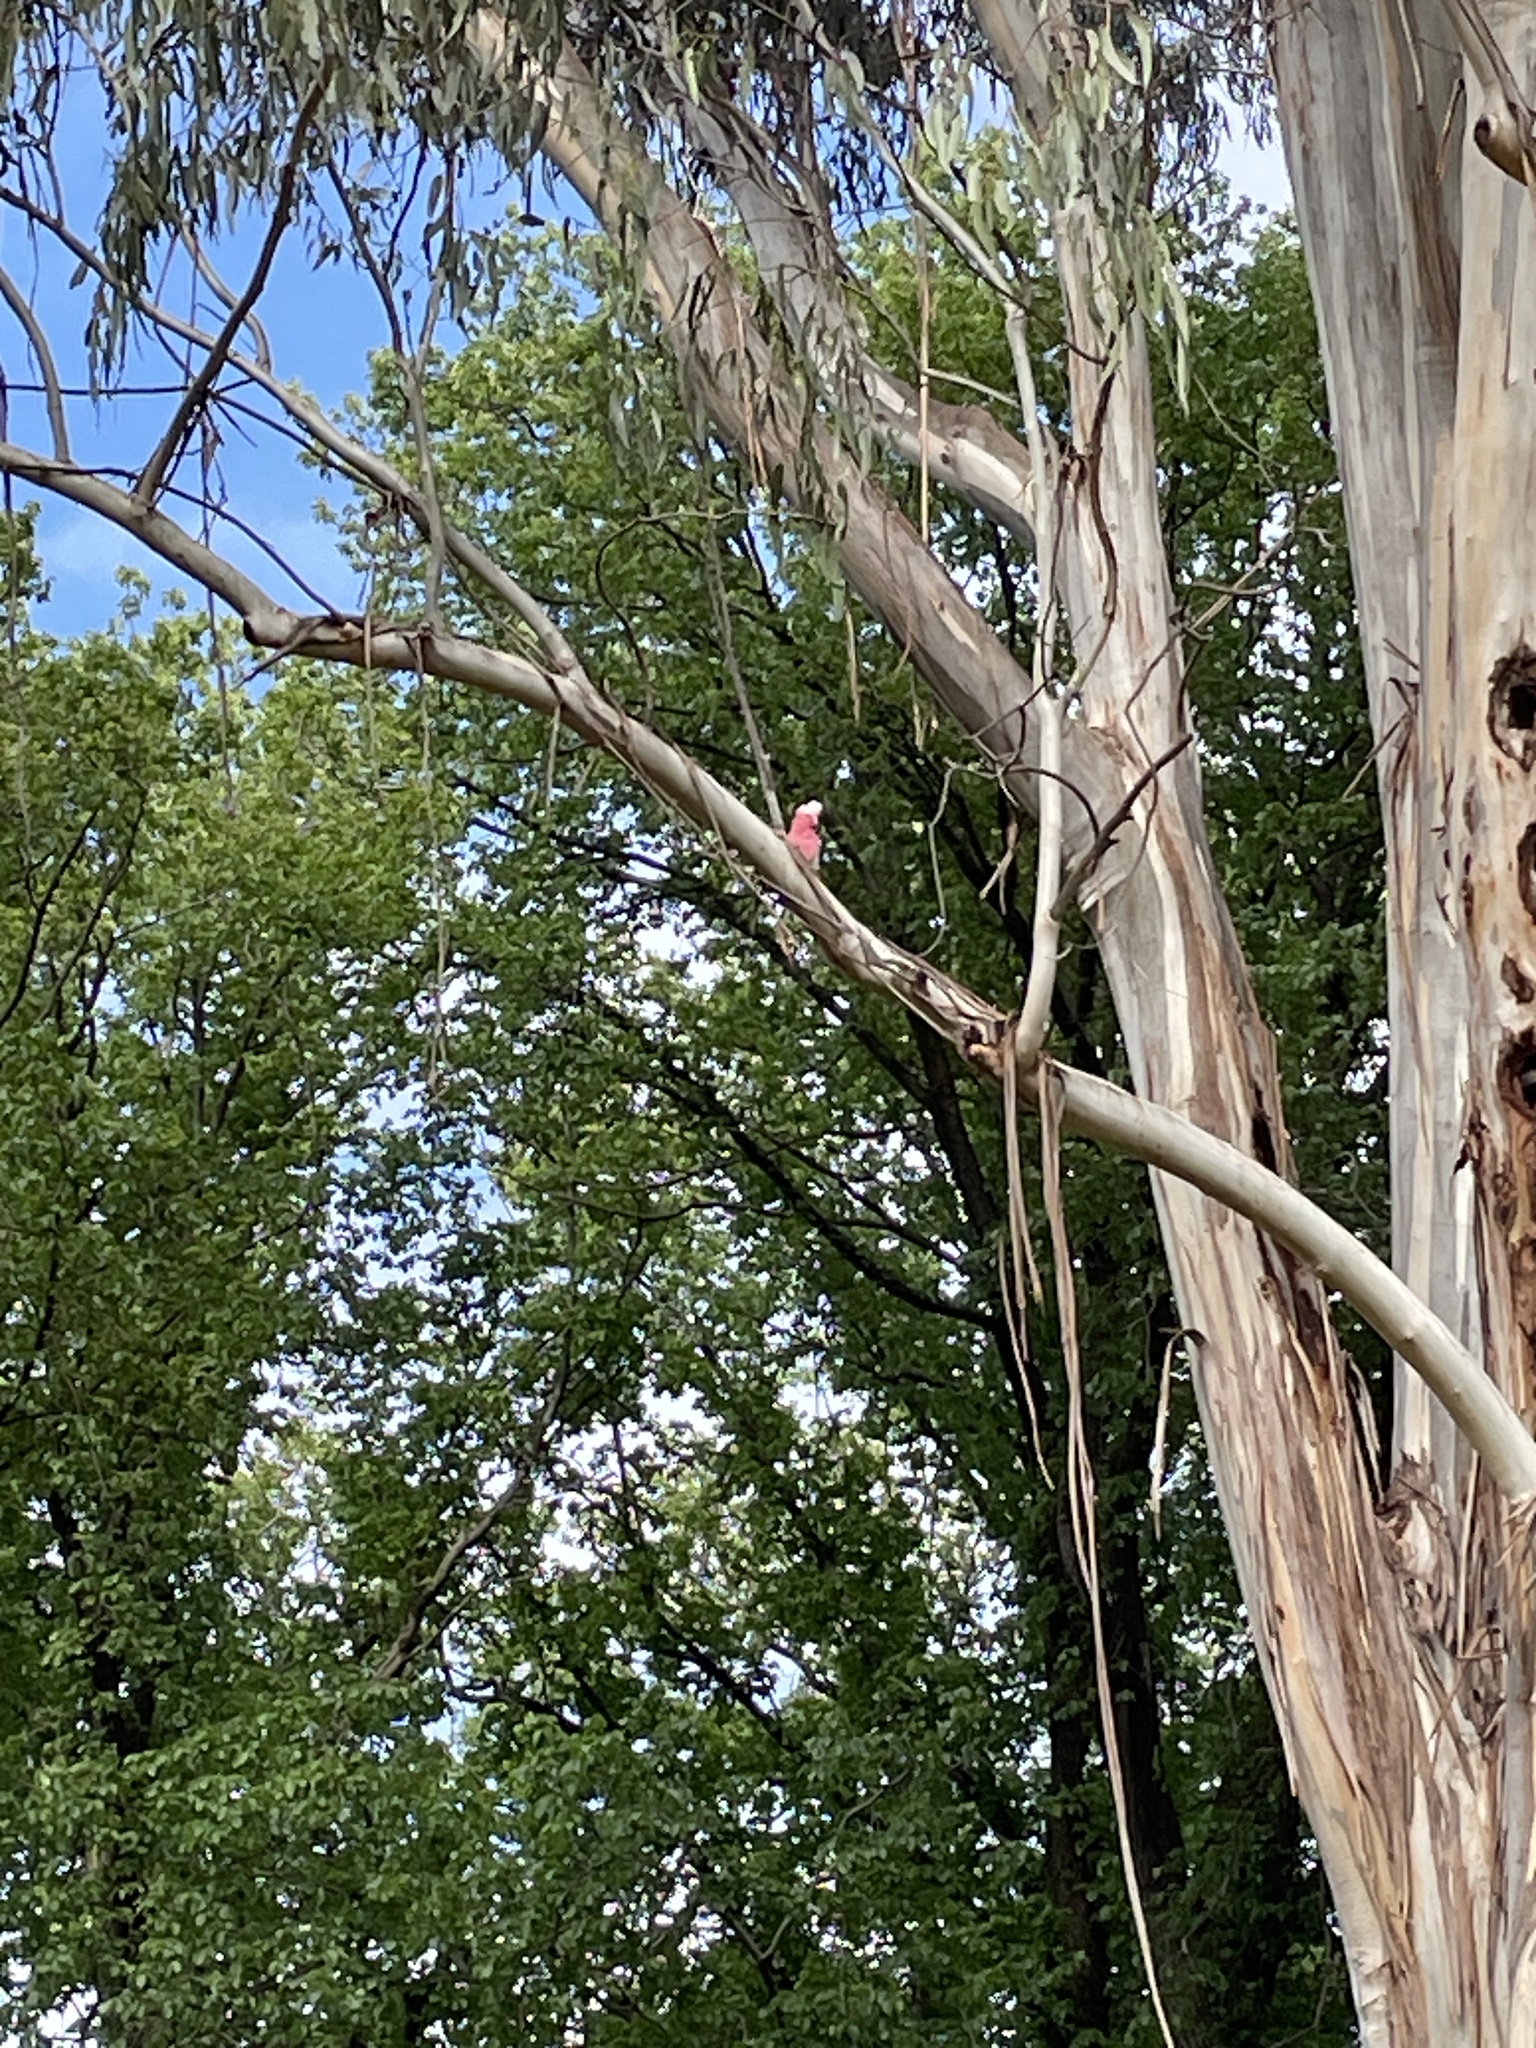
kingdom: Animalia
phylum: Chordata
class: Aves
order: Psittaciformes
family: Psittacidae
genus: Eolophus
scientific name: Eolophus roseicapilla
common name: Galah
